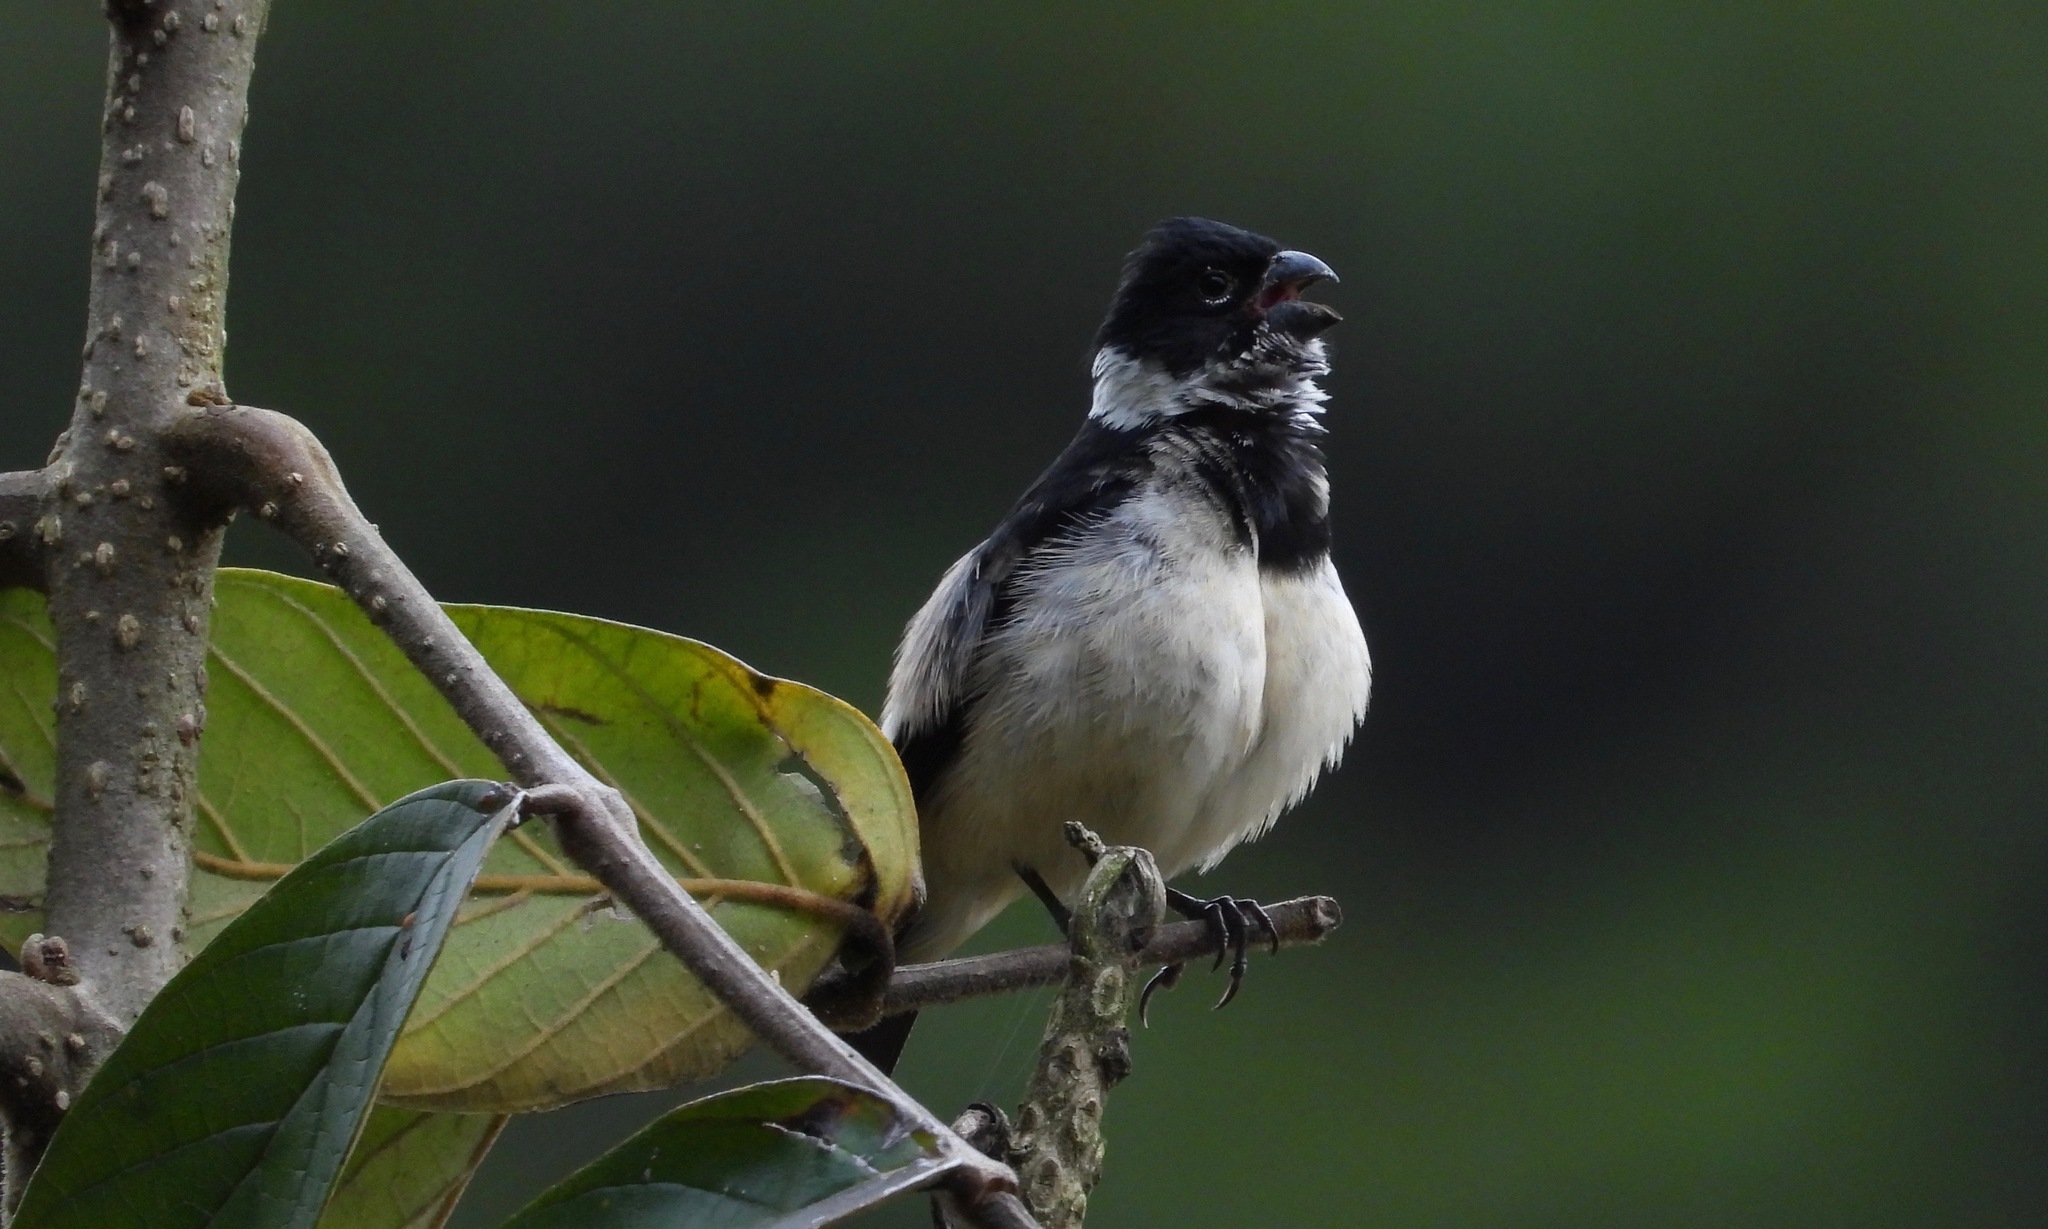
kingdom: Animalia
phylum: Chordata
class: Aves
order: Passeriformes
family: Thraupidae
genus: Sporophila
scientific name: Sporophila morelleti
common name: Morelet's seedeater
